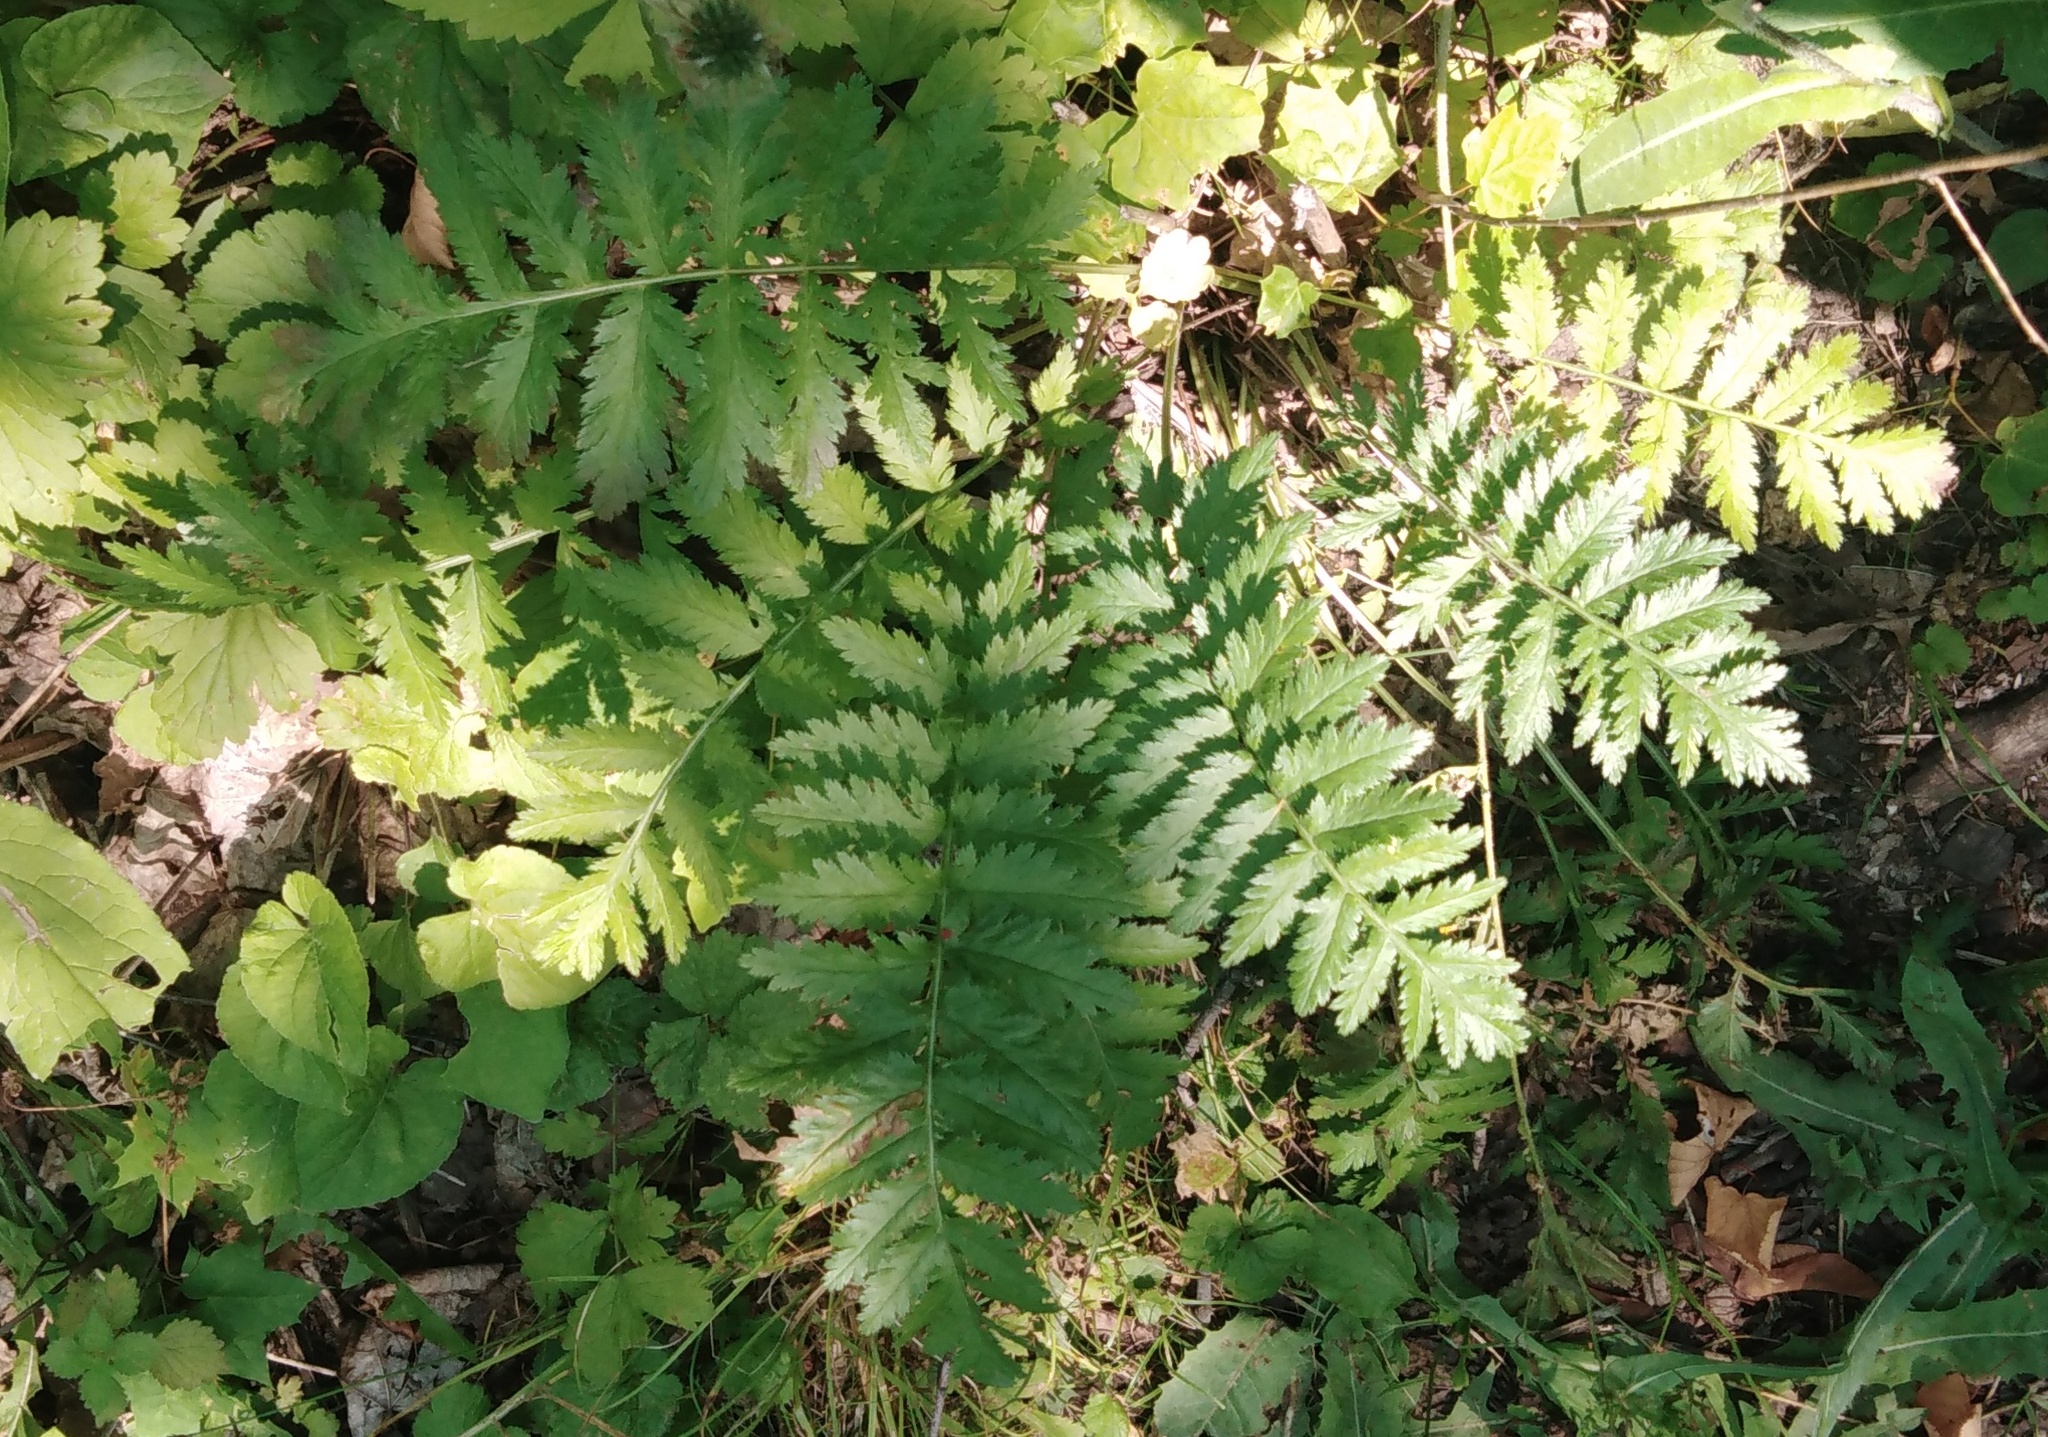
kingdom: Plantae
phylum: Tracheophyta
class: Magnoliopsida
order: Asterales
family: Asteraceae
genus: Tanacetum
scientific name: Tanacetum corymbosum
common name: Scentless feverfew
